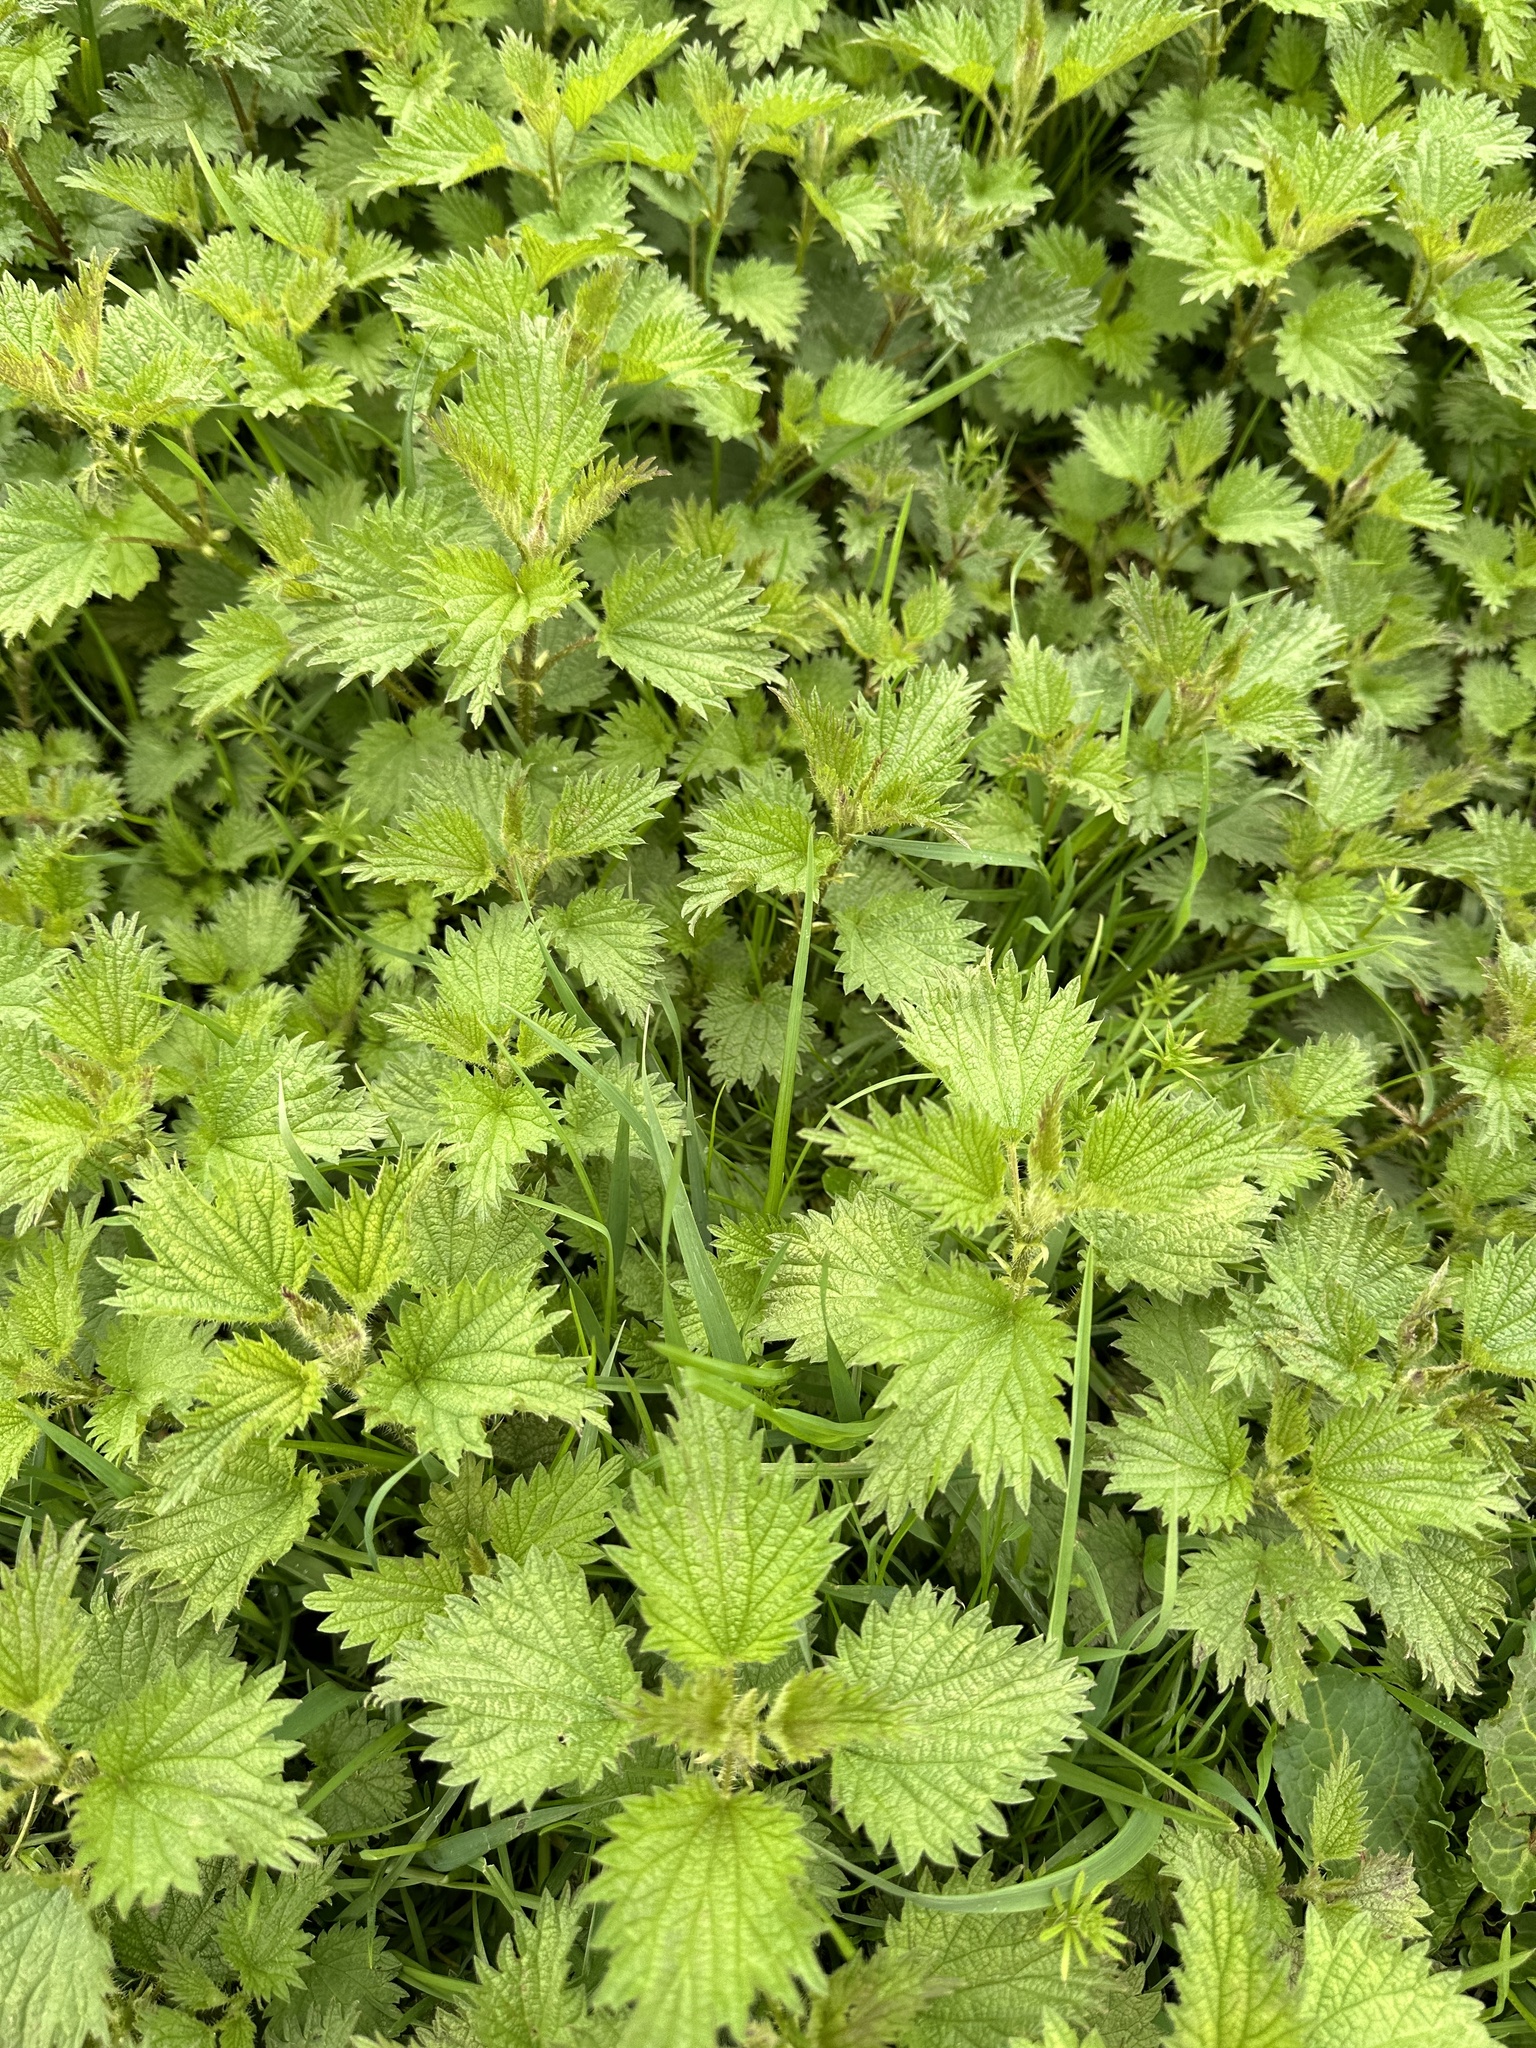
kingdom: Plantae
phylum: Tracheophyta
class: Magnoliopsida
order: Rosales
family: Urticaceae
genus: Urtica
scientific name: Urtica dioica
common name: Common nettle
